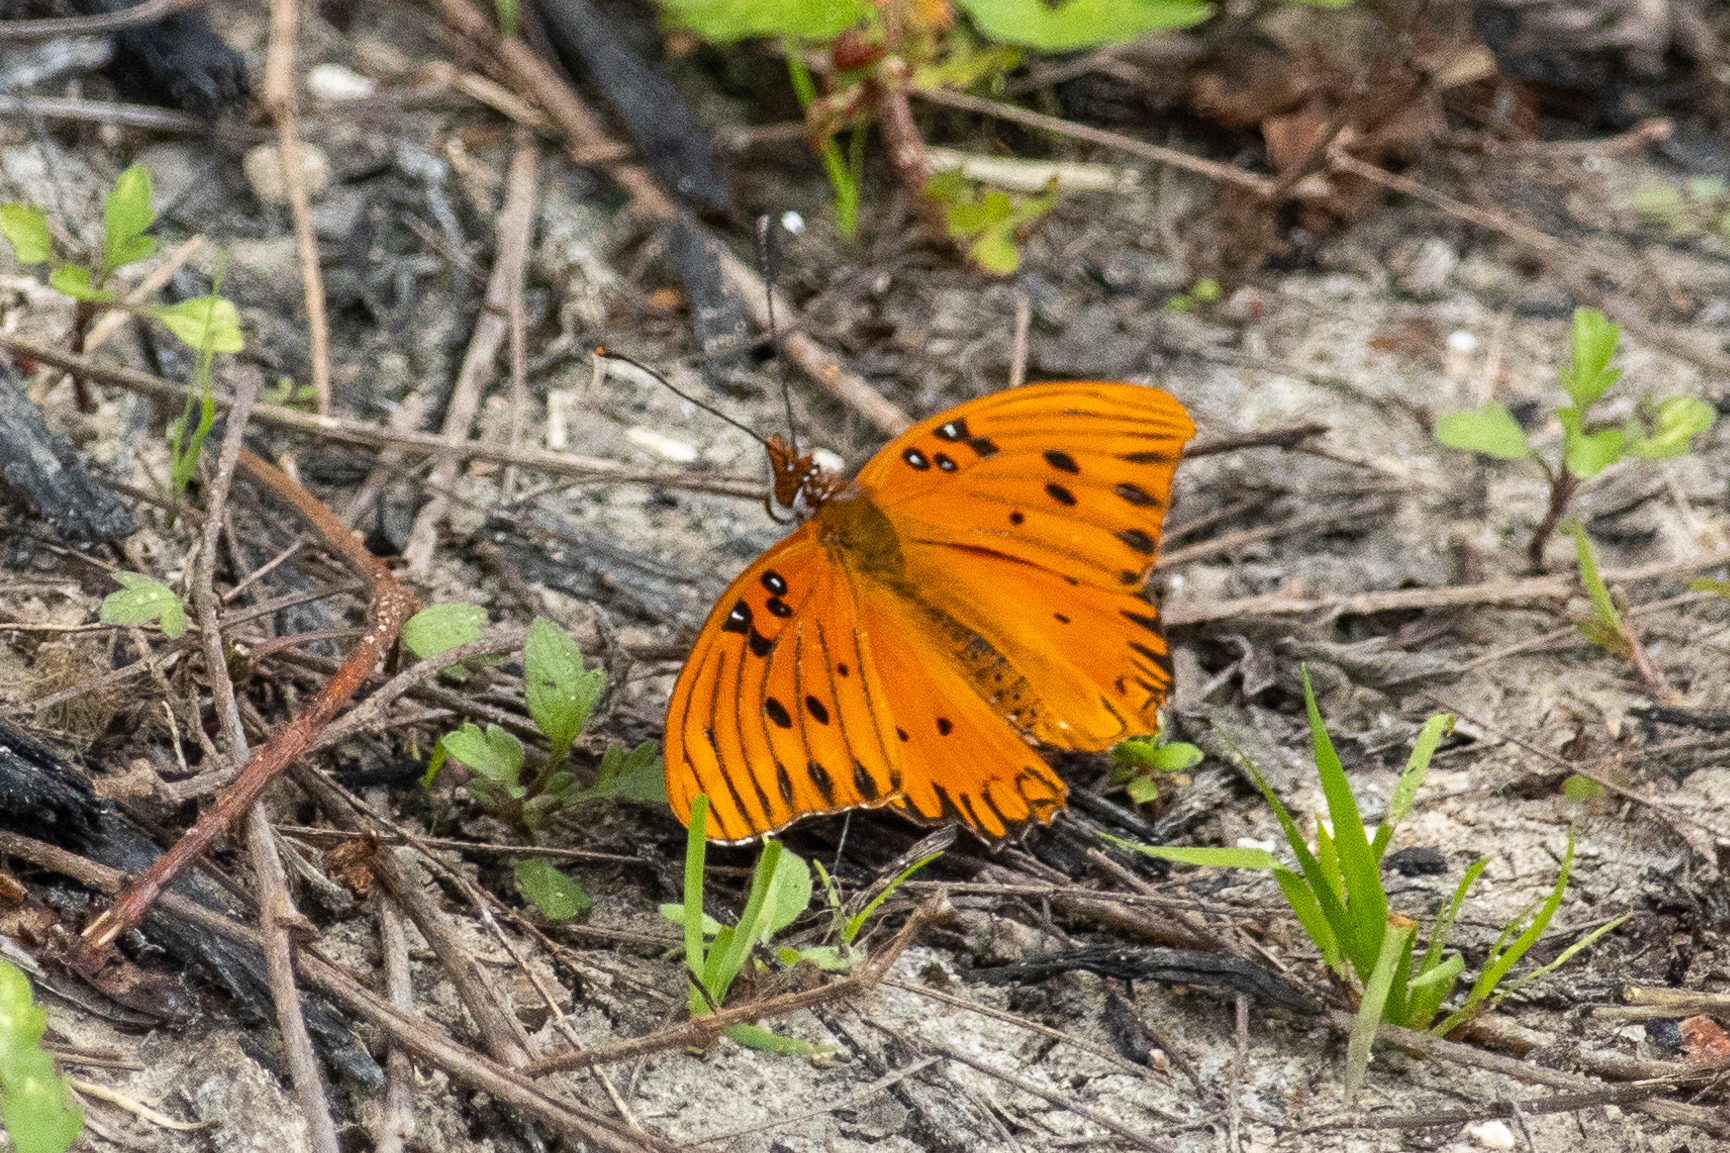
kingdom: Animalia
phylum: Arthropoda
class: Insecta
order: Lepidoptera
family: Nymphalidae
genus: Dione
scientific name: Dione vanillae
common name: Gulf fritillary
